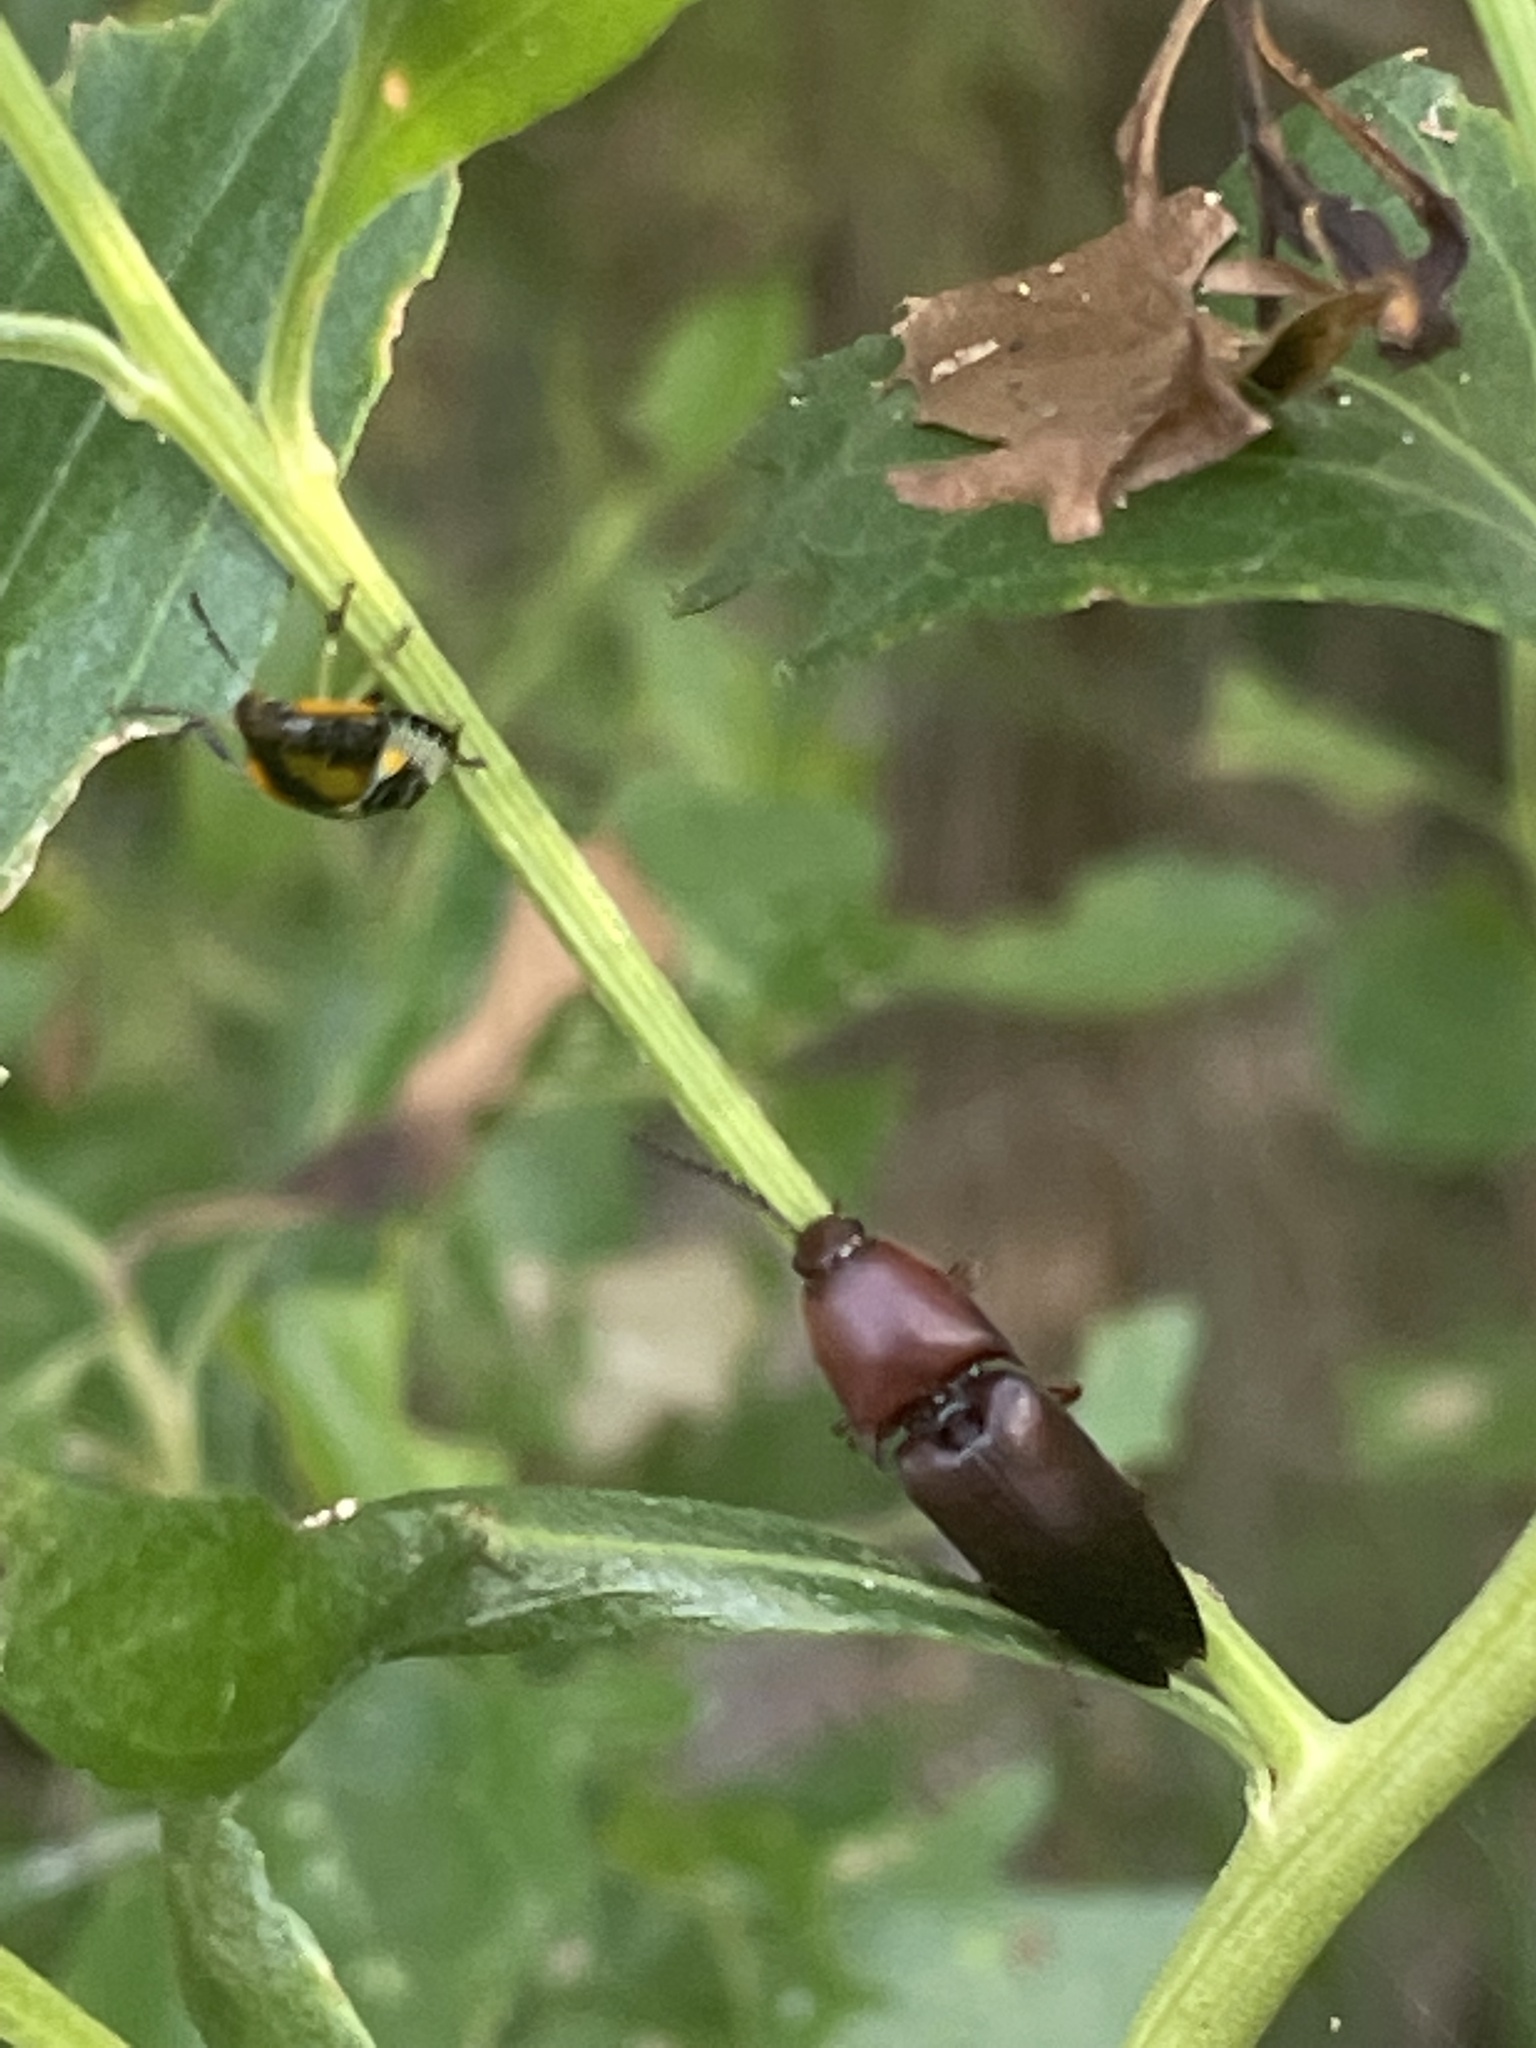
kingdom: Animalia
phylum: Arthropoda
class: Insecta
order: Coleoptera
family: Elateridae
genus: Parallelostethus
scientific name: Parallelostethus attenuatus
